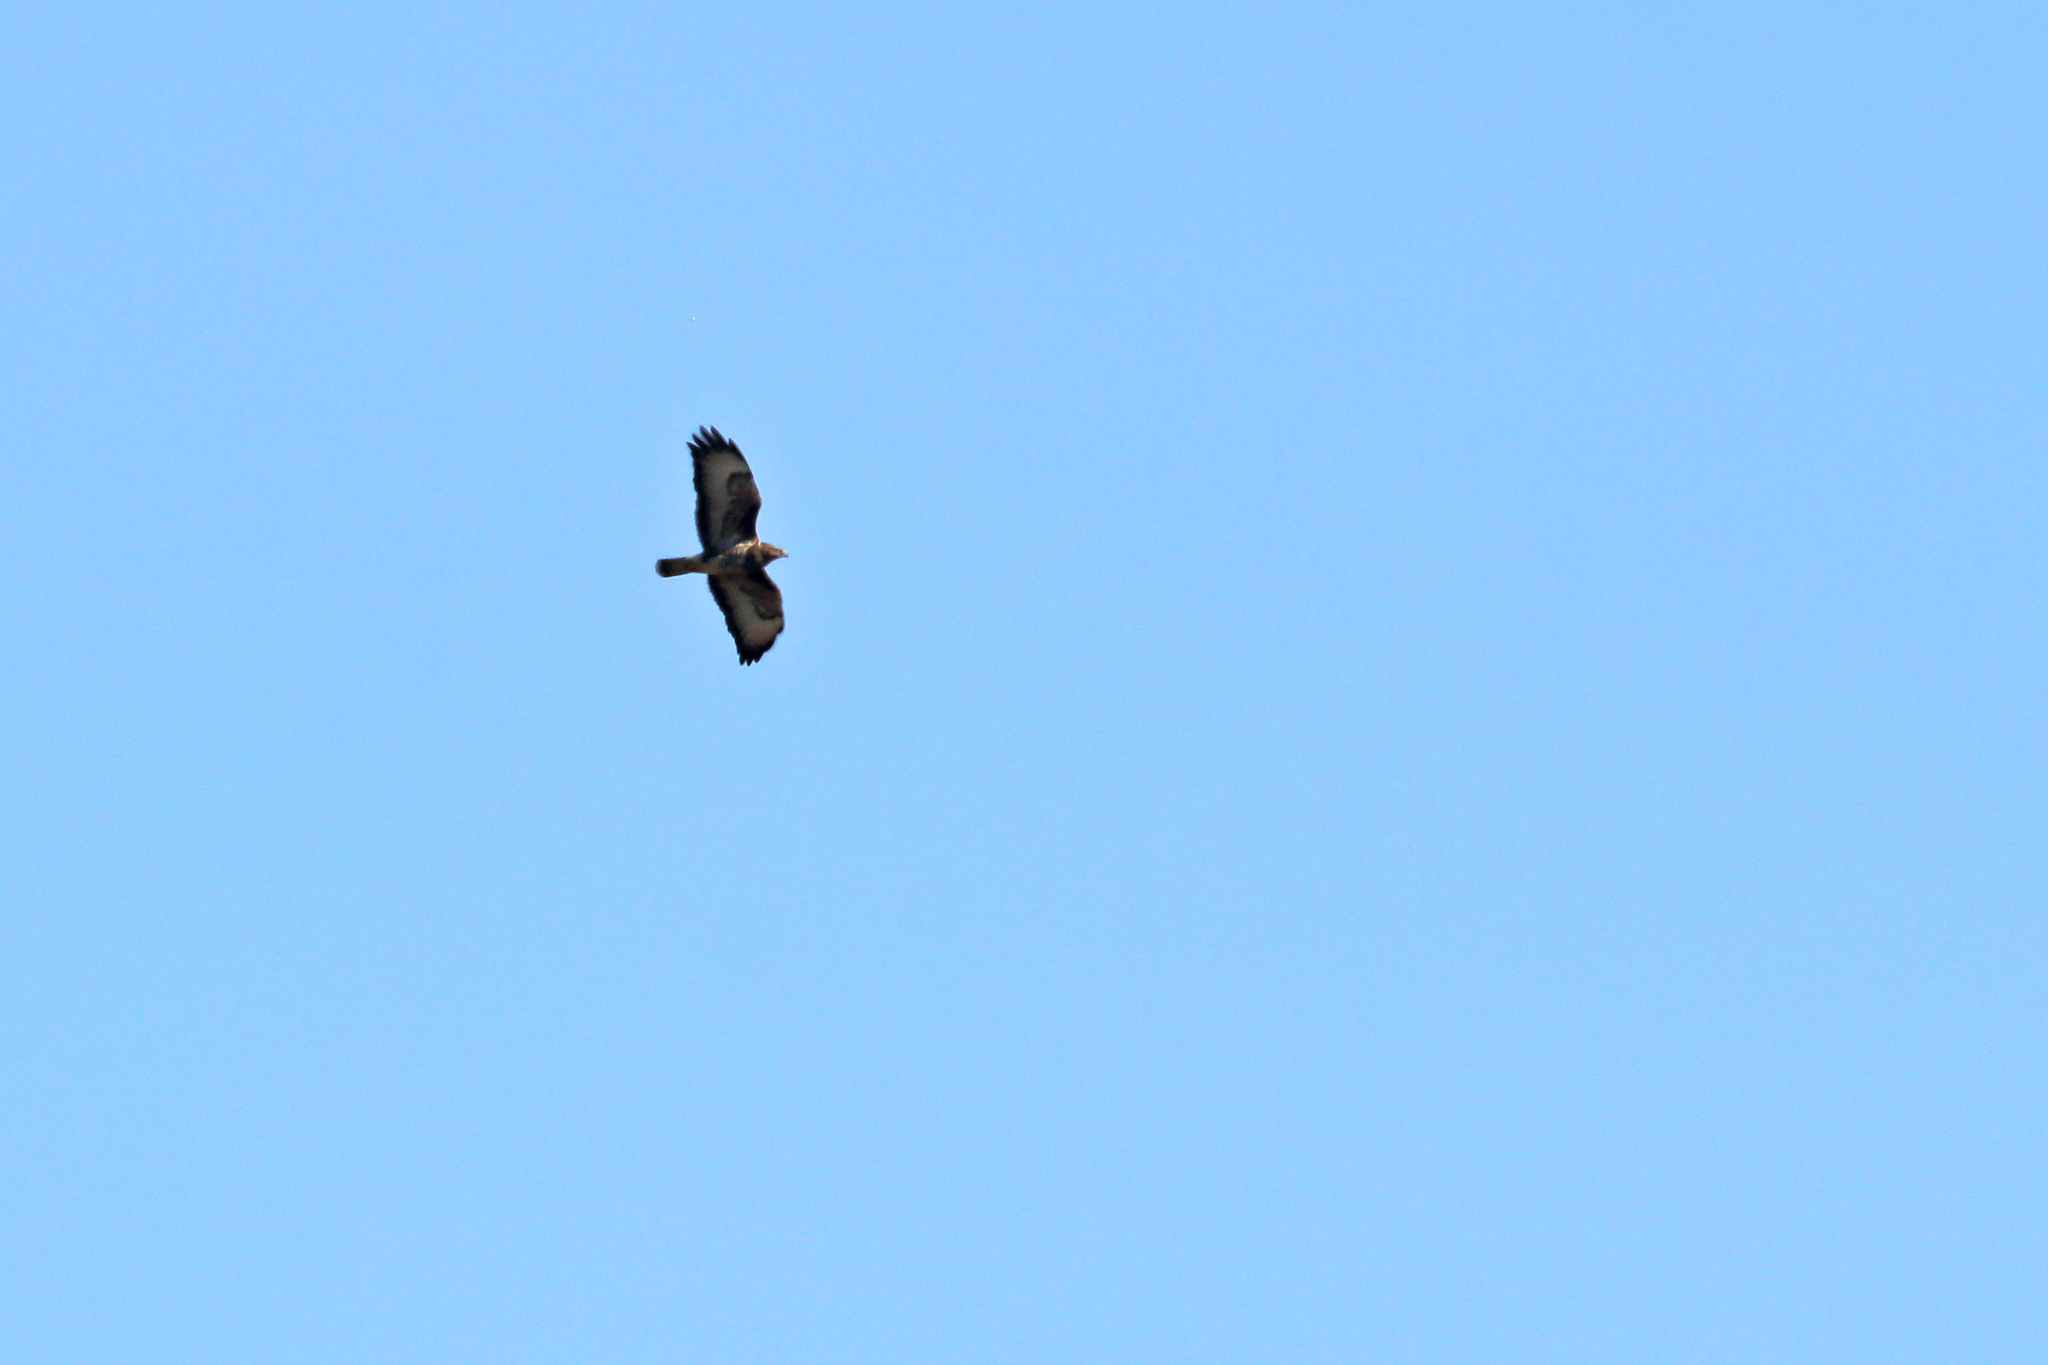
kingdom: Animalia
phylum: Chordata
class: Aves
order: Accipitriformes
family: Accipitridae
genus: Buteo
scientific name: Buteo buteo
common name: Common buzzard
